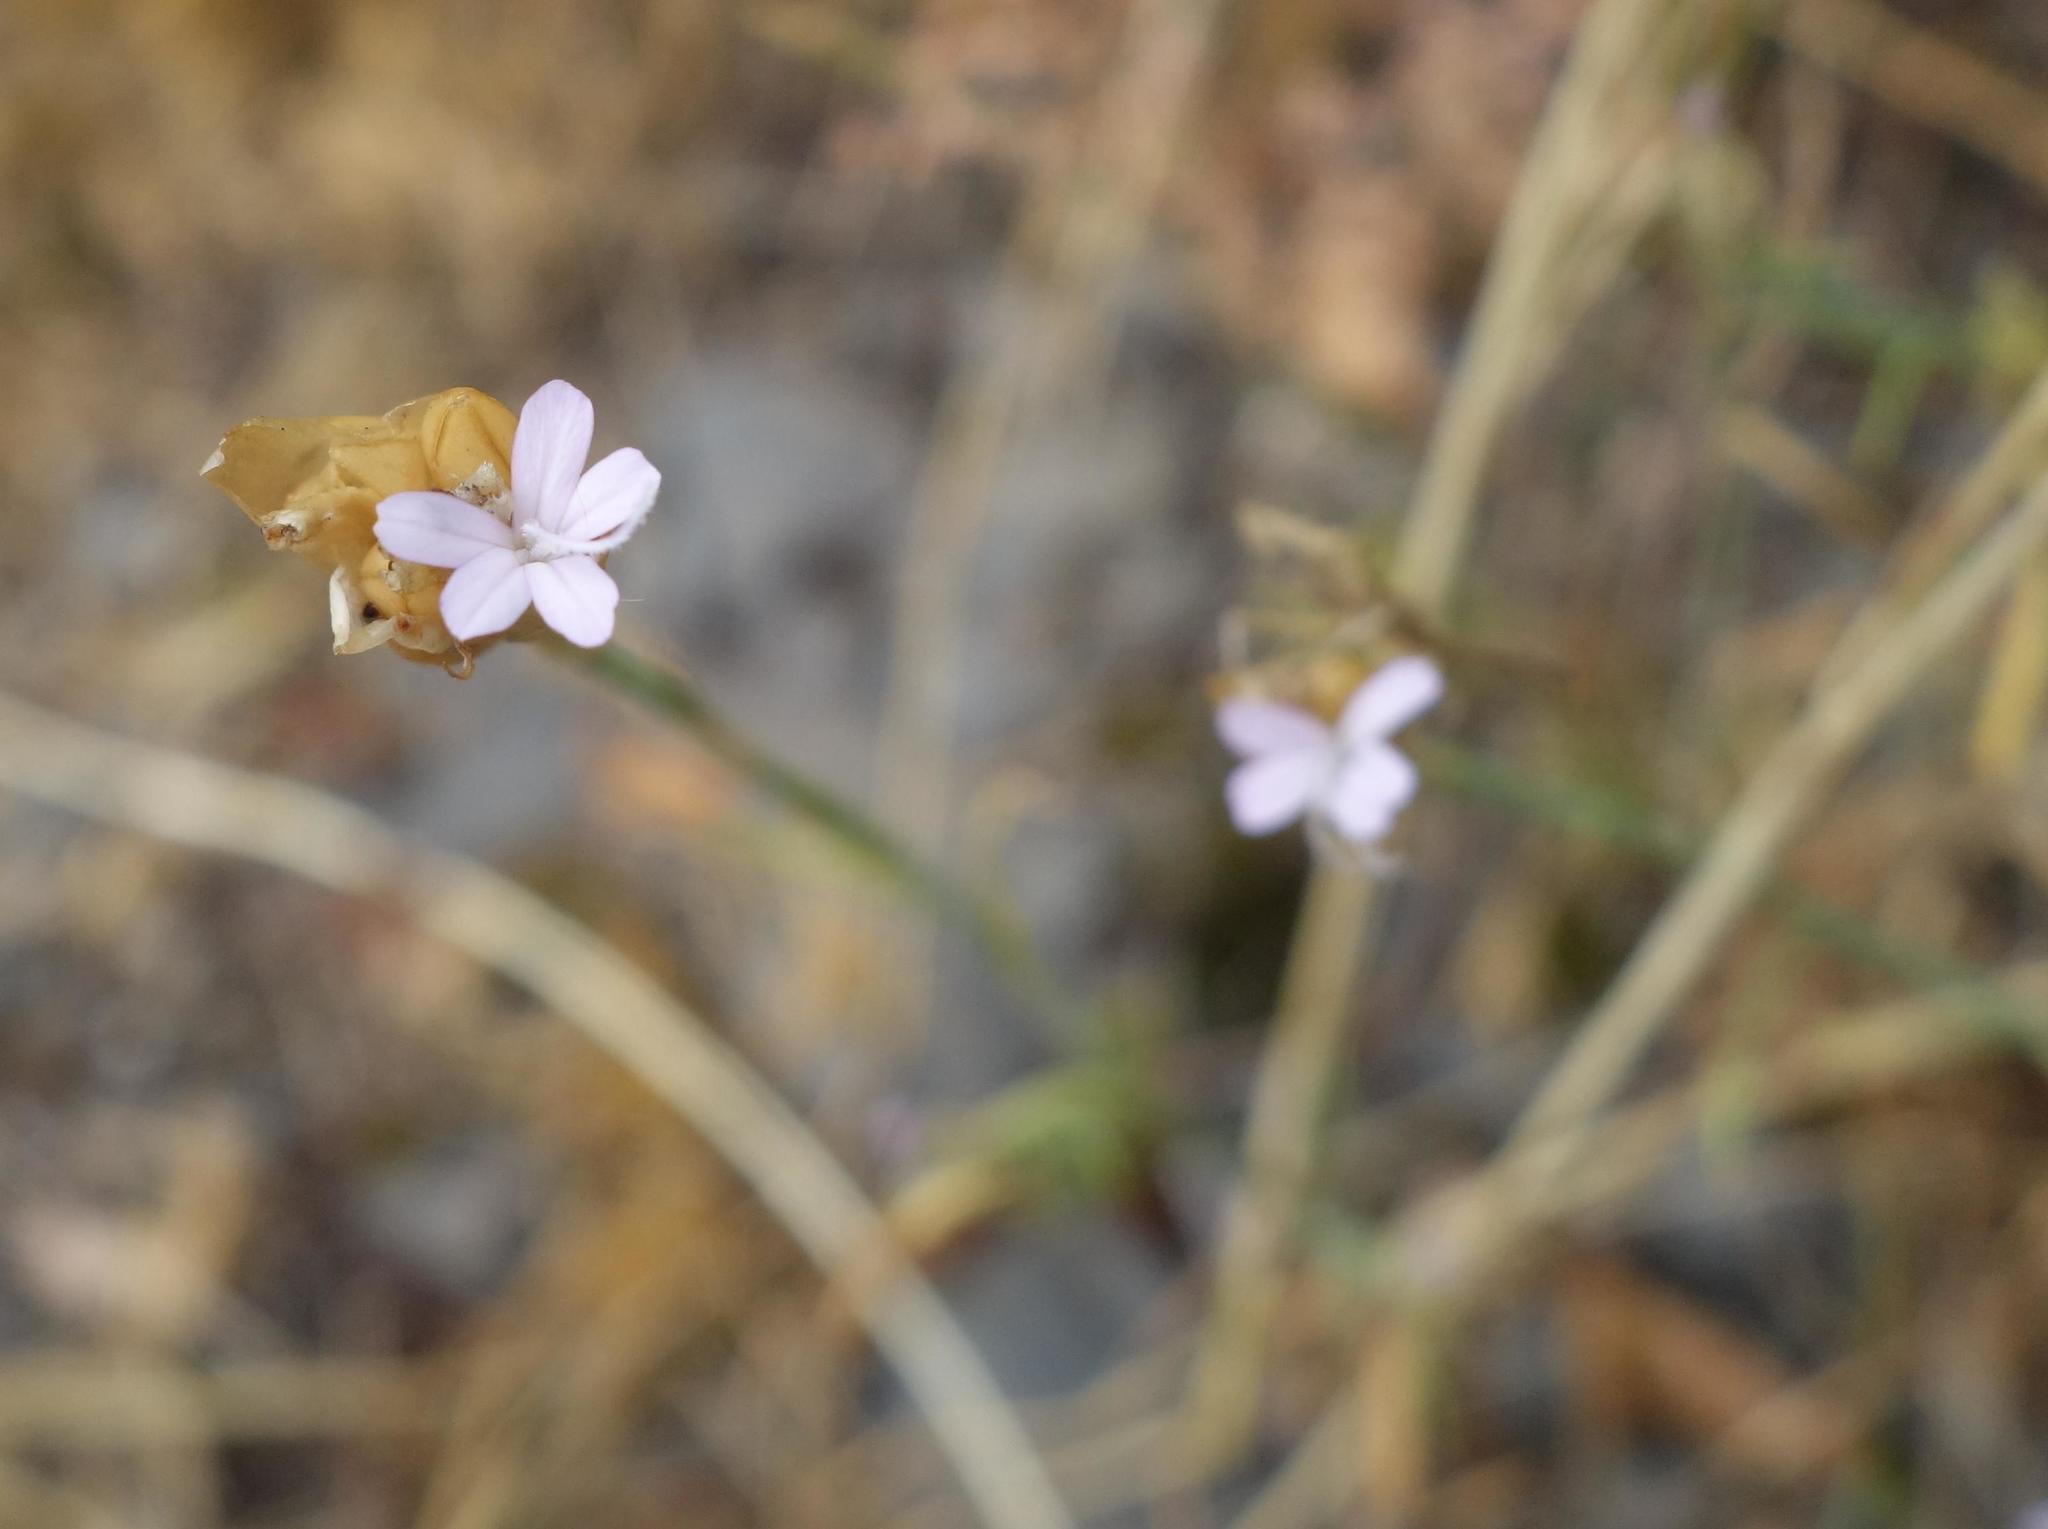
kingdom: Plantae
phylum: Tracheophyta
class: Magnoliopsida
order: Caryophyllales
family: Caryophyllaceae
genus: Petrorhagia
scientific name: Petrorhagia prolifera
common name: Proliferous pink
